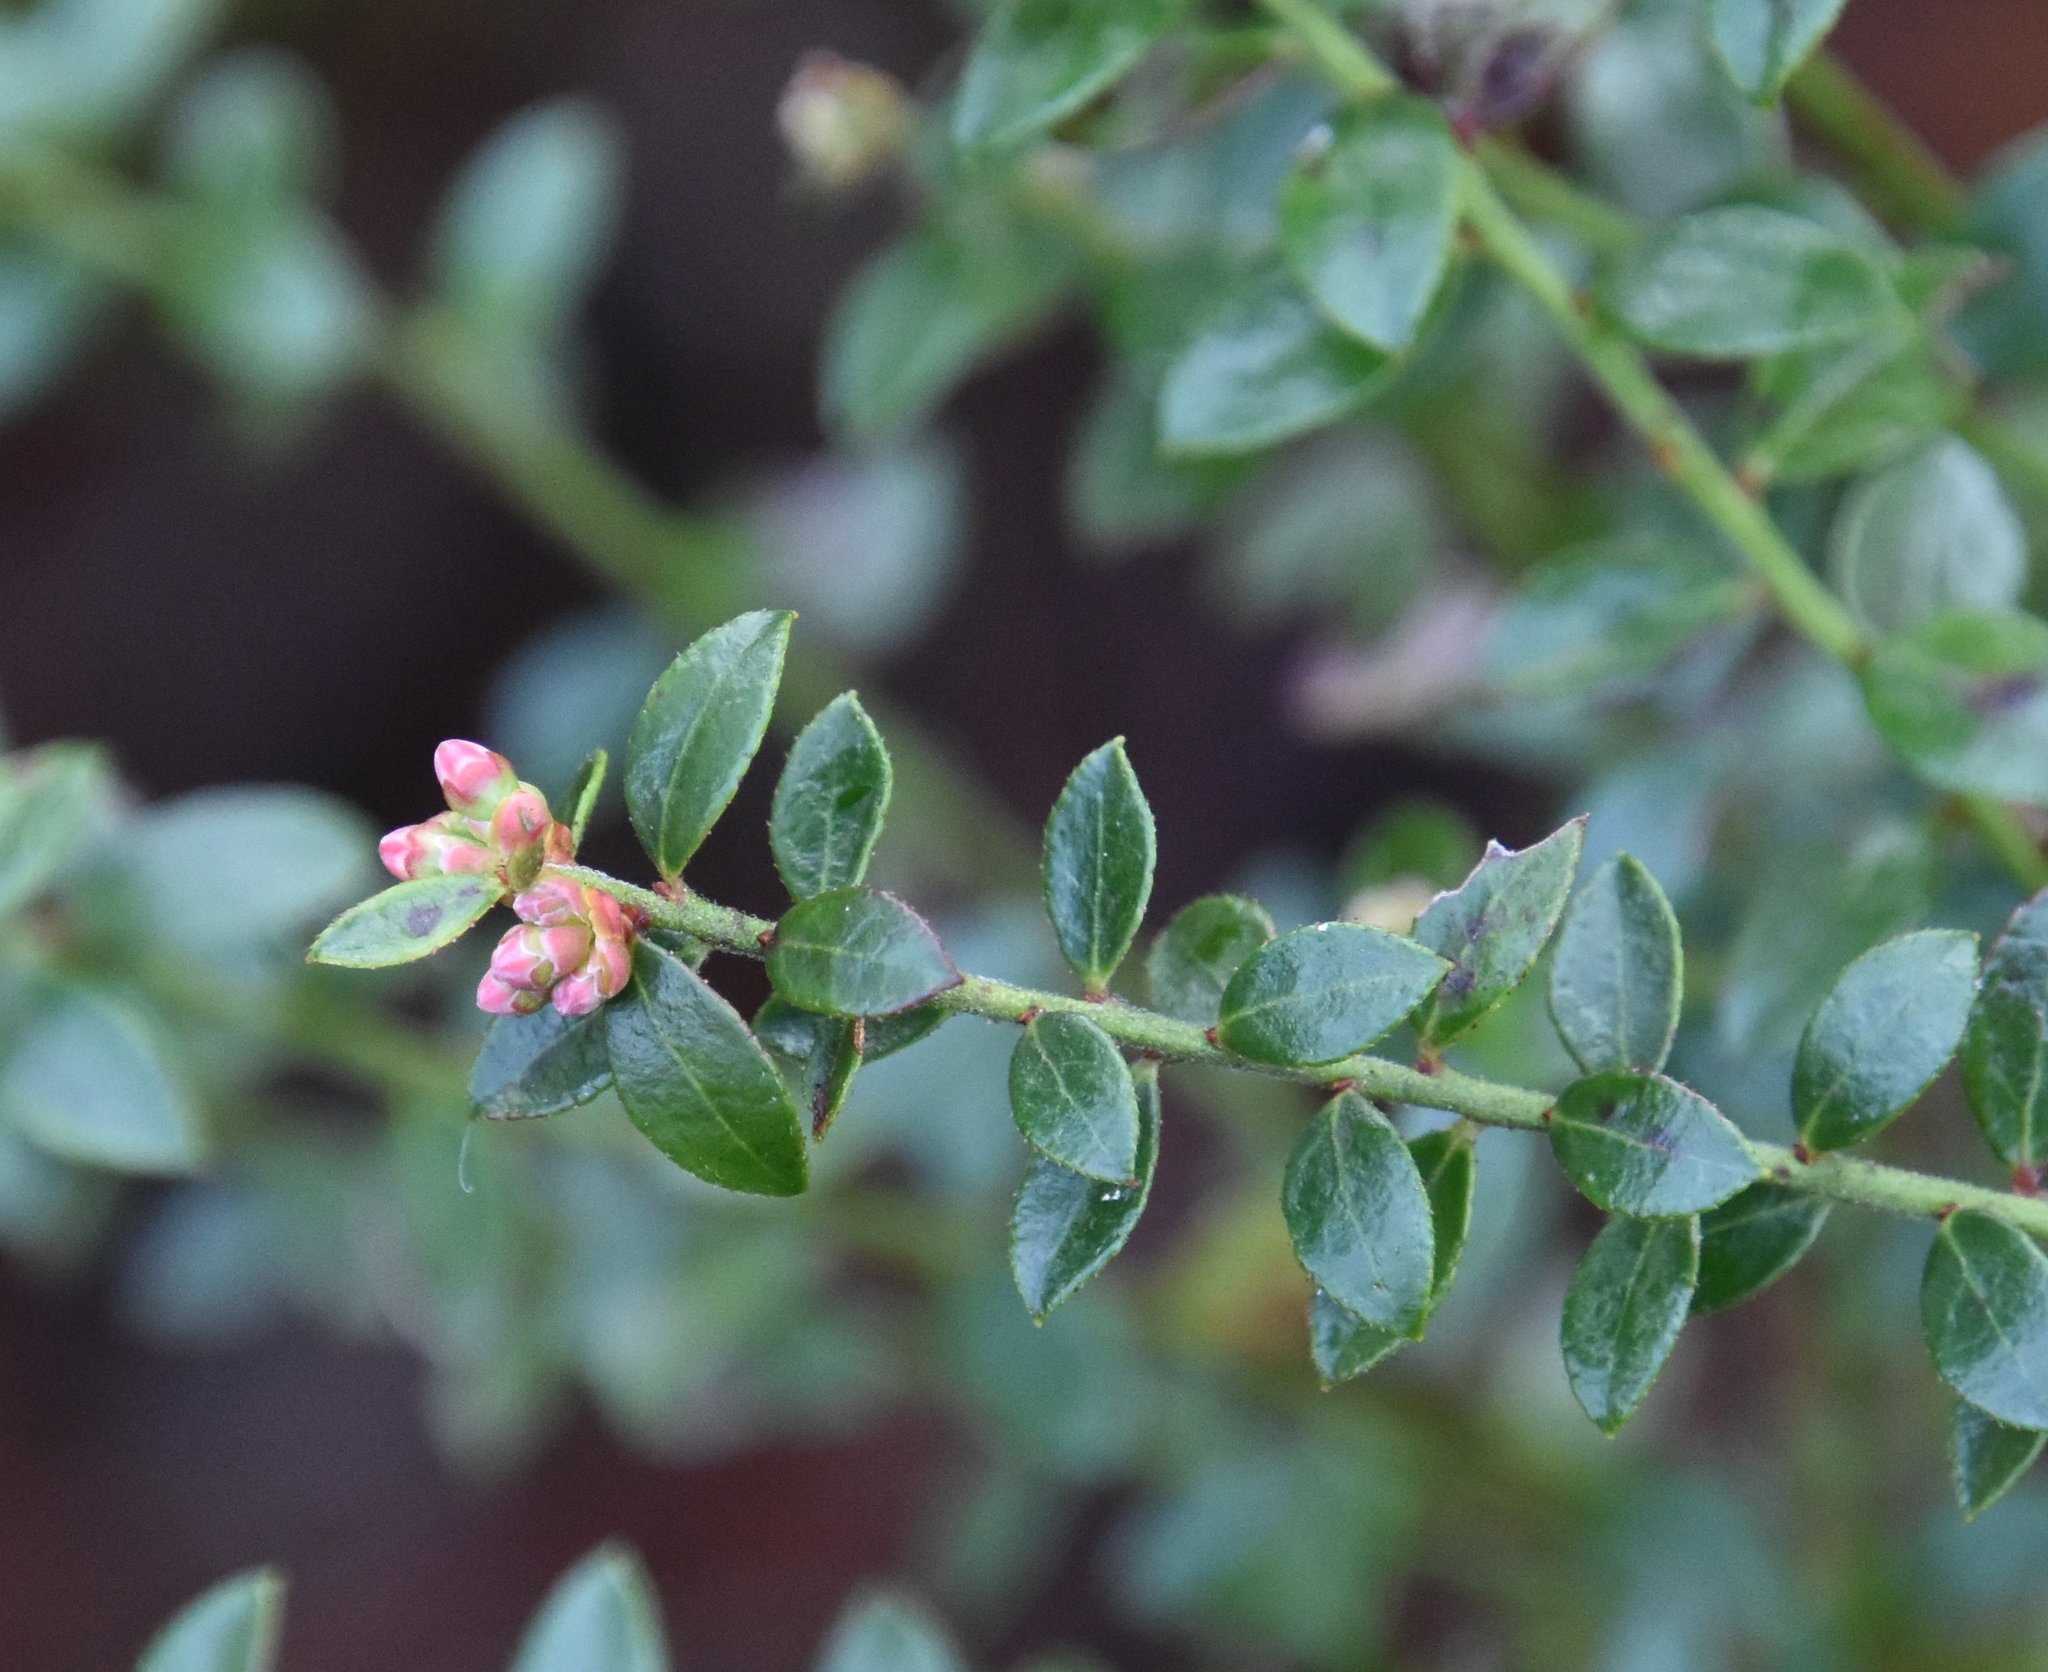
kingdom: Plantae
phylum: Tracheophyta
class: Magnoliopsida
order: Ericales
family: Ericaceae
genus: Vaccinium
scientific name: Vaccinium myrsinites
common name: Evergreen blueberry
